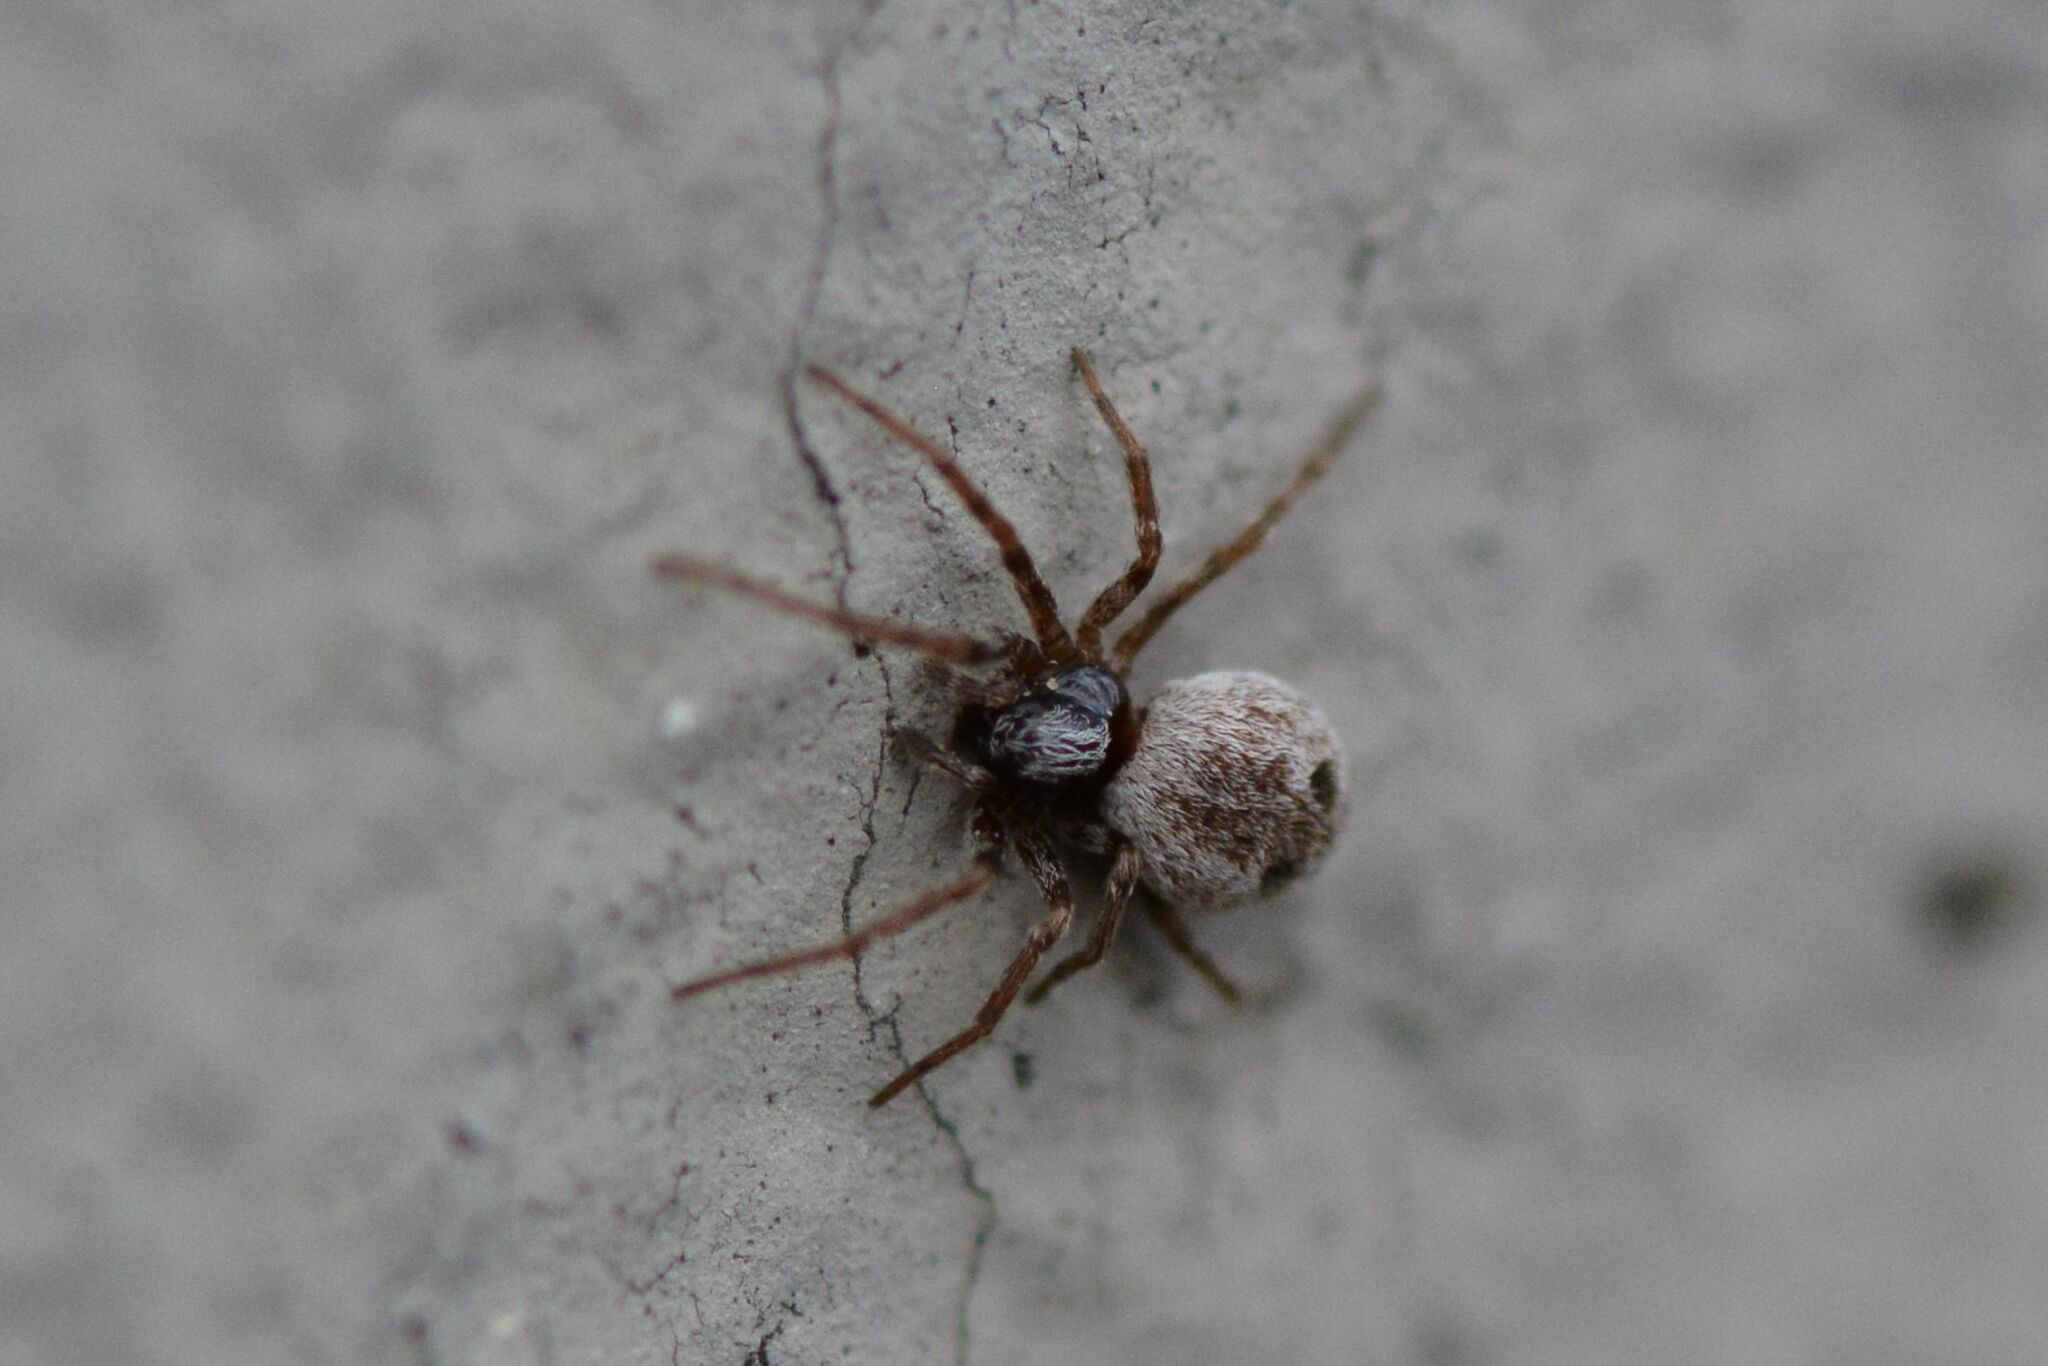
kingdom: Animalia
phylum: Arthropoda
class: Arachnida
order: Araneae
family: Dictynidae
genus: Brigittea
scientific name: Brigittea civica
